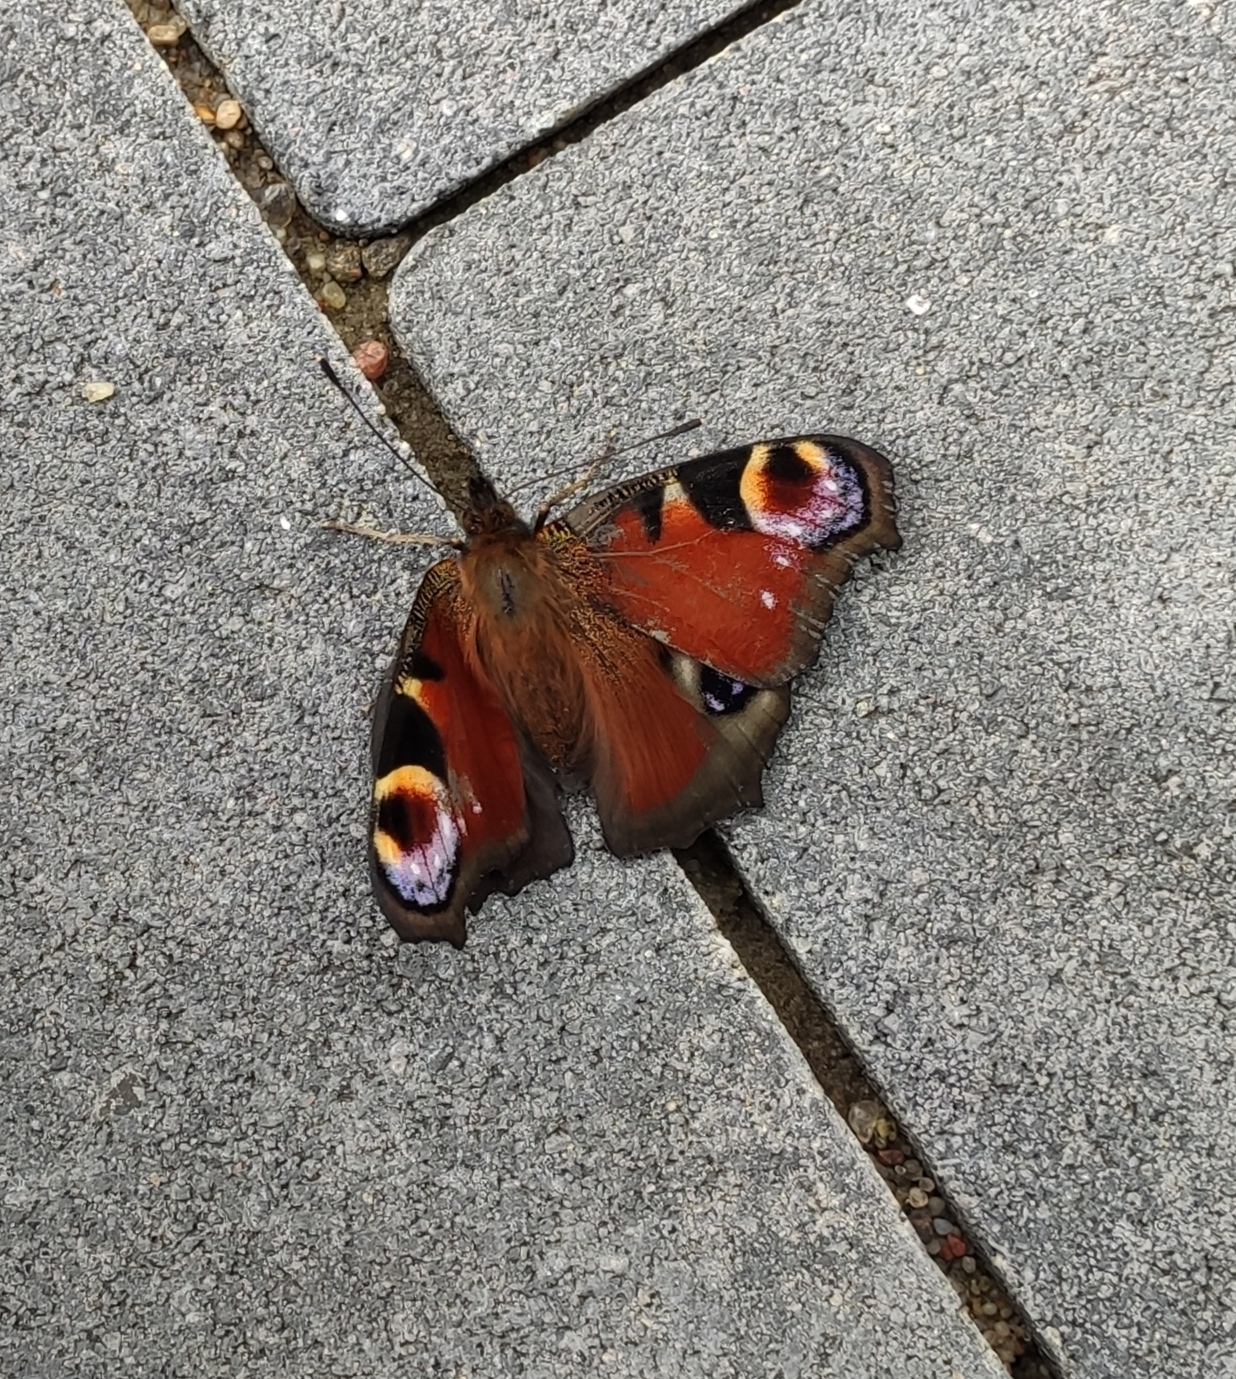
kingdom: Animalia
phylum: Arthropoda
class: Insecta
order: Lepidoptera
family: Nymphalidae
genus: Aglais
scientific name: Aglais io
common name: Peacock
